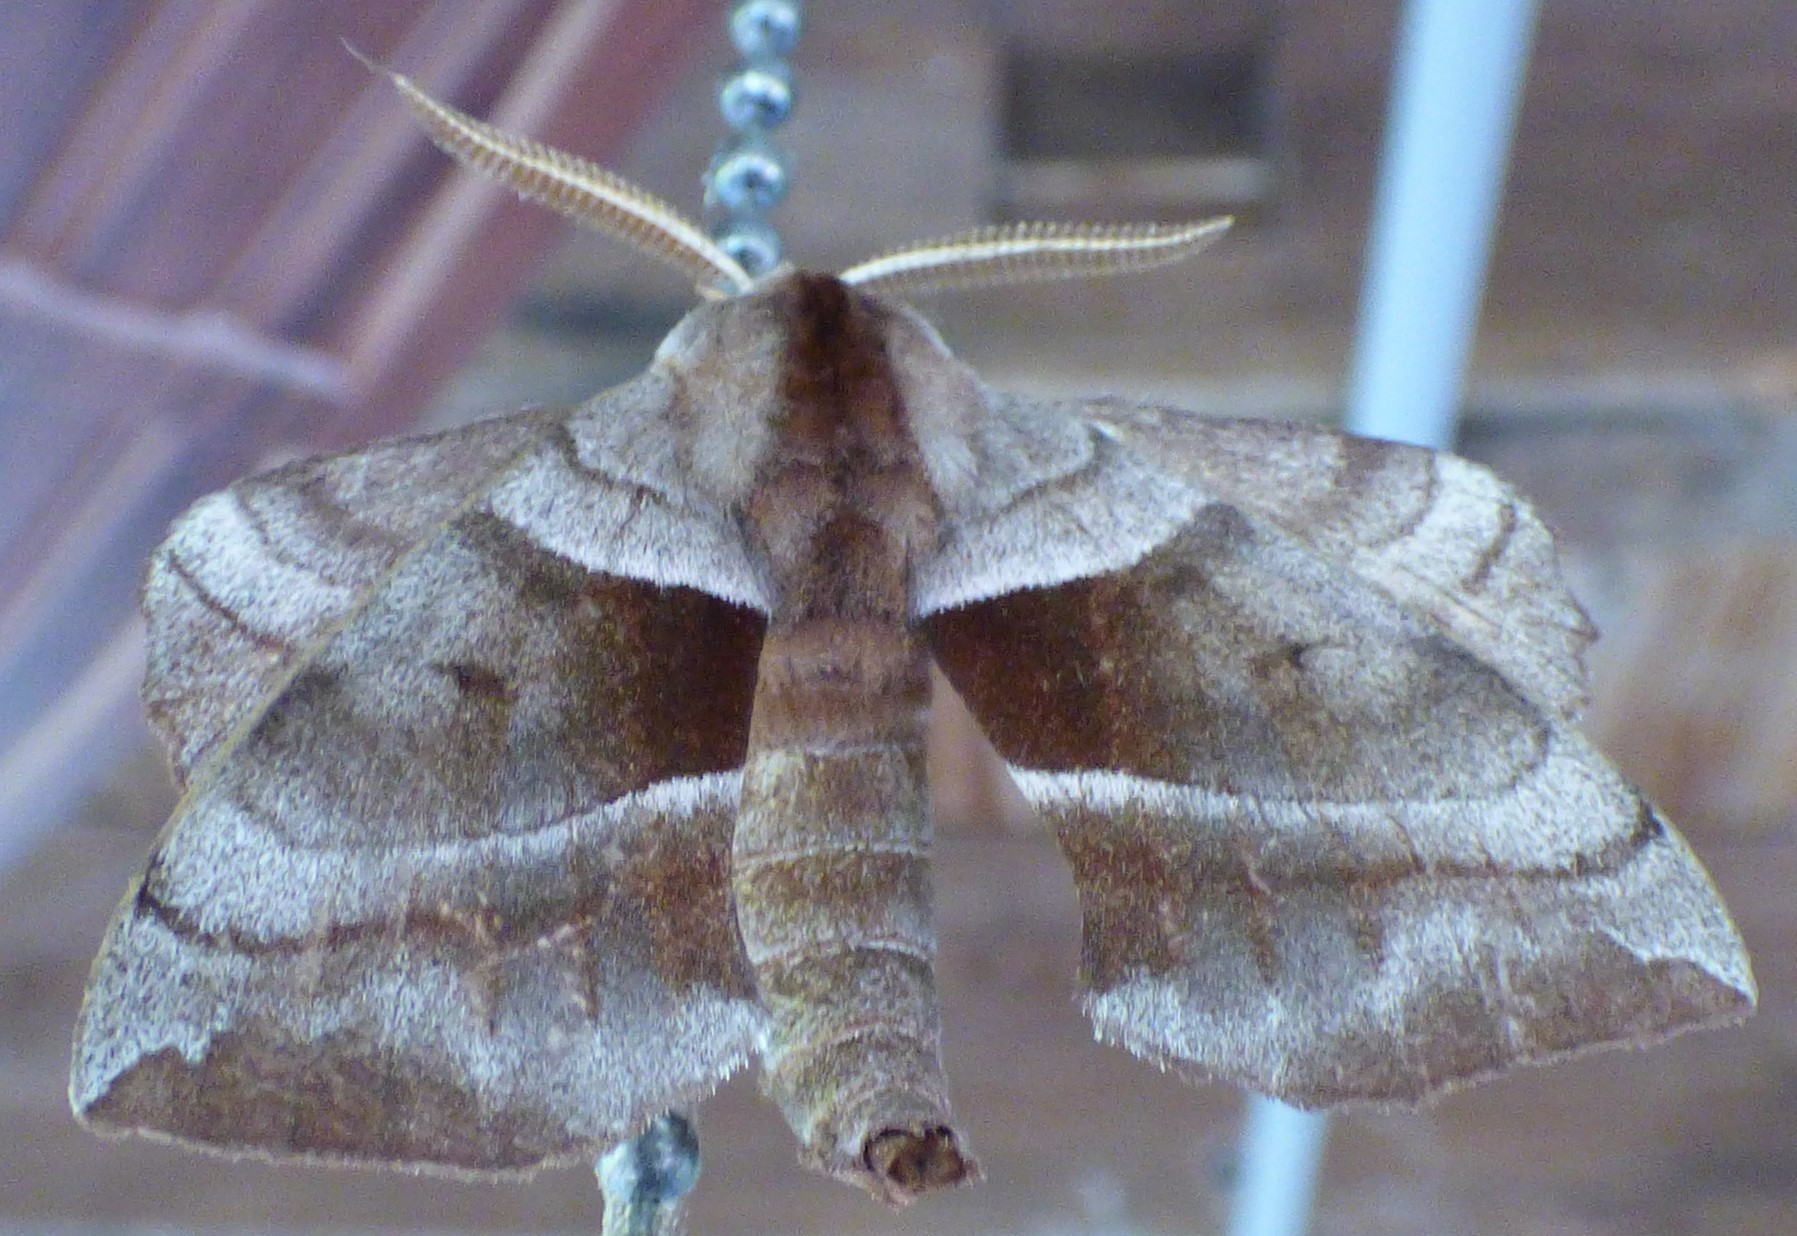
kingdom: Animalia
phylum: Arthropoda
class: Insecta
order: Lepidoptera
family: Sphingidae
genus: Amorpha
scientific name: Amorpha juglandis
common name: Walnut sphinx
